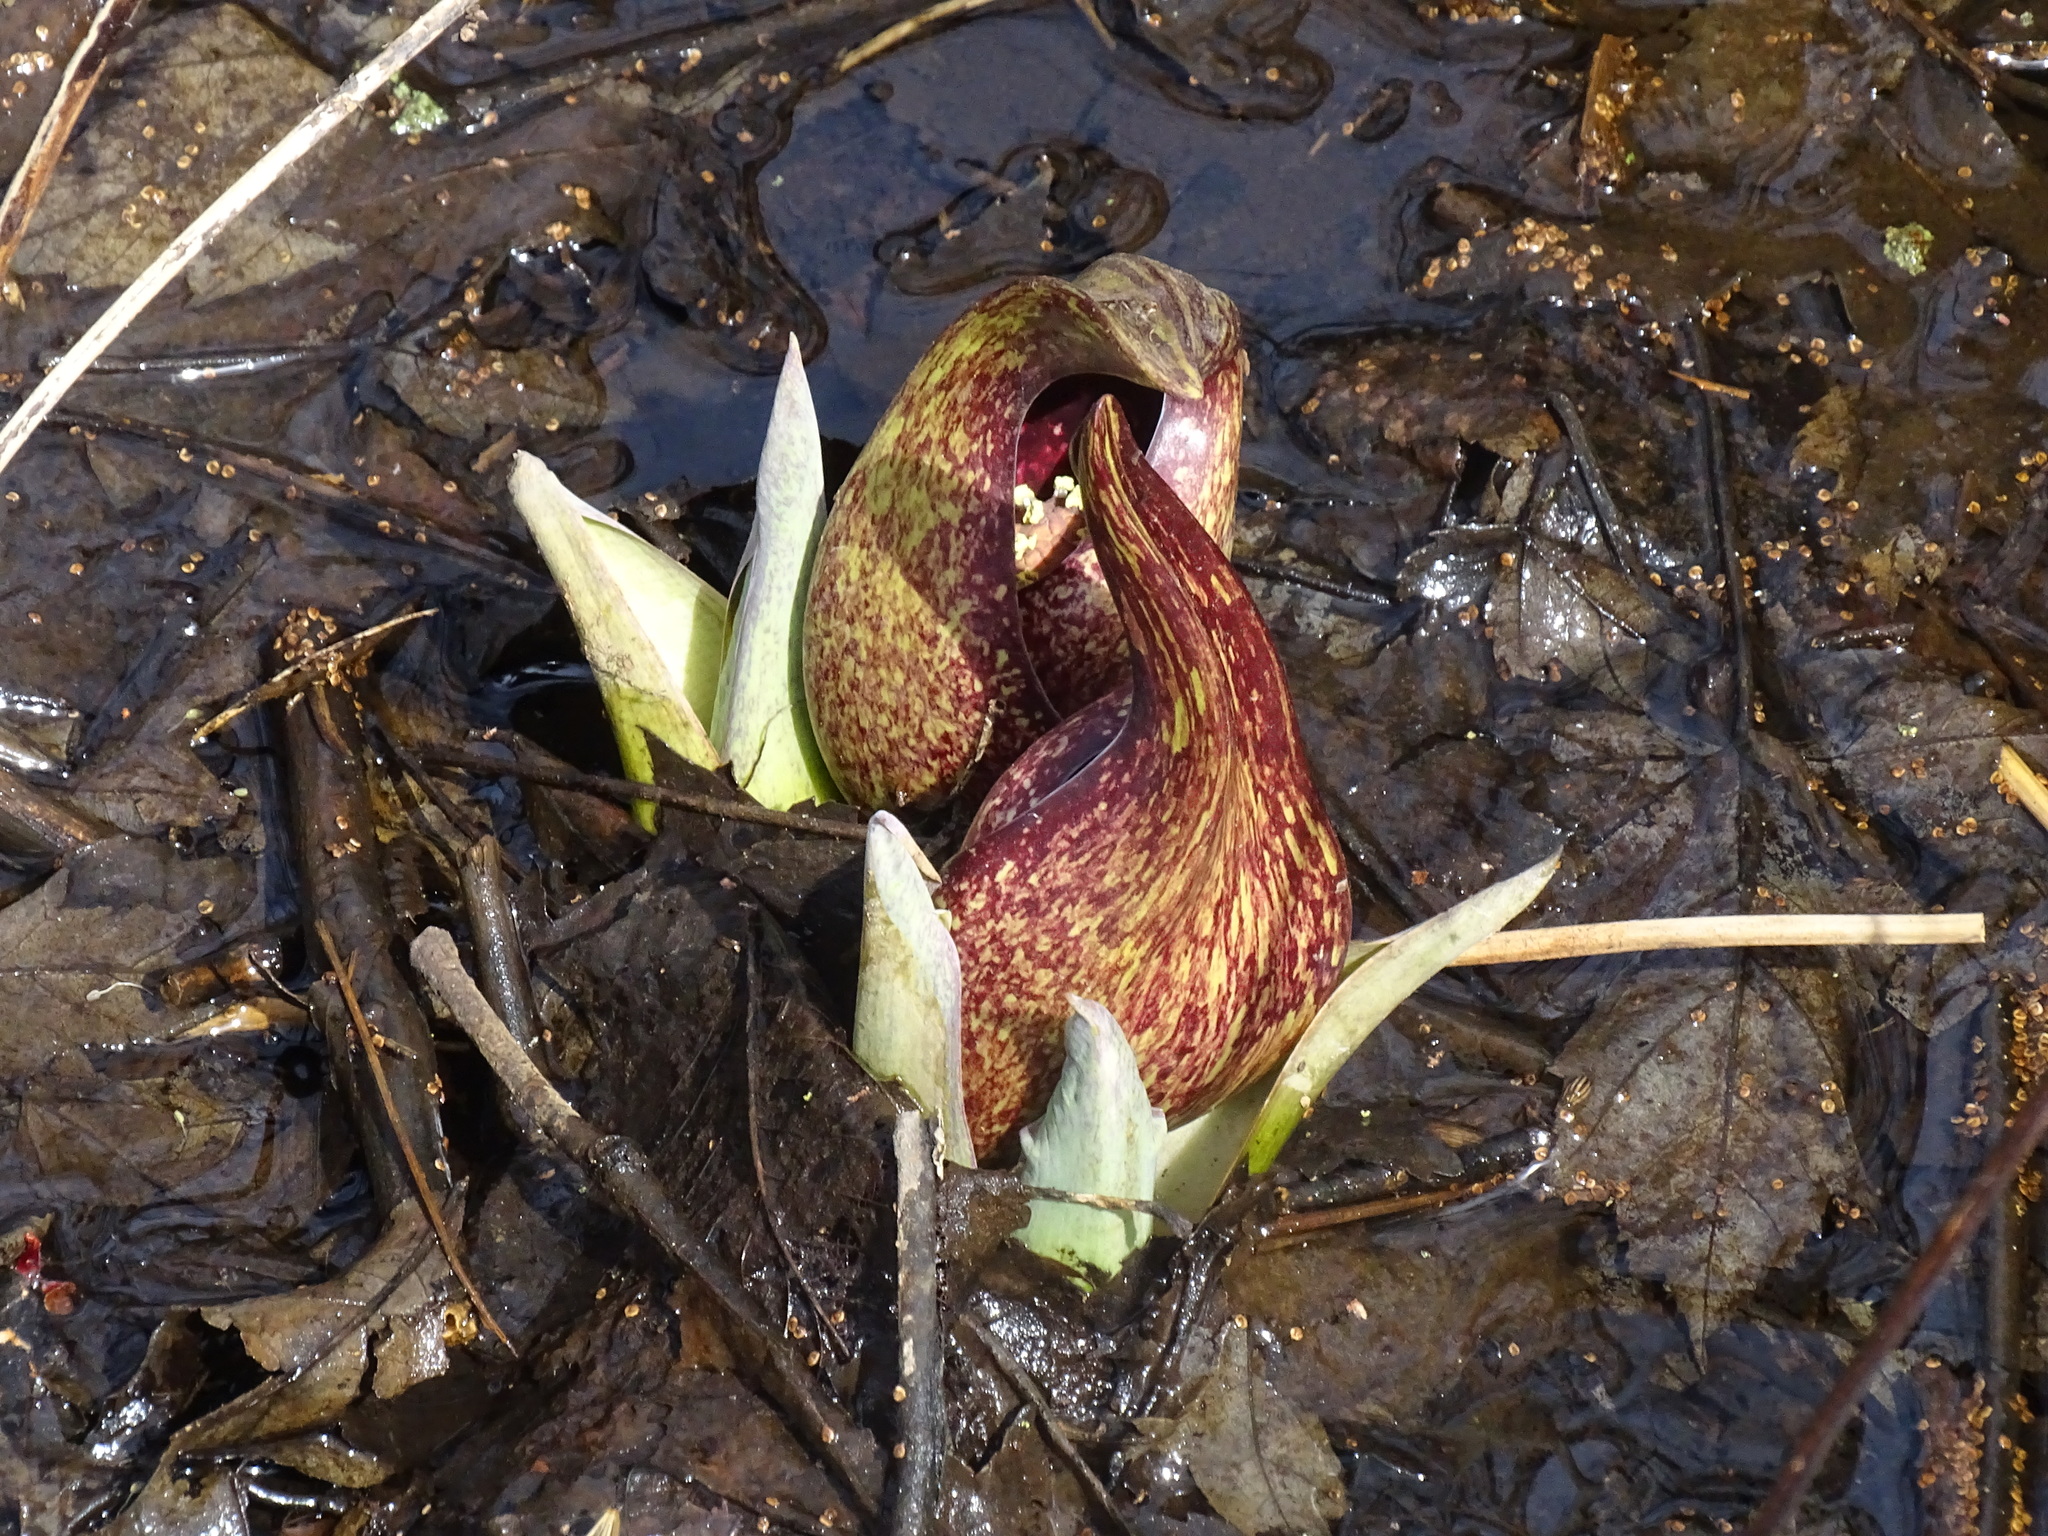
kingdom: Plantae
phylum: Tracheophyta
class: Liliopsida
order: Alismatales
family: Araceae
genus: Symplocarpus
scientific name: Symplocarpus foetidus
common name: Eastern skunk cabbage
